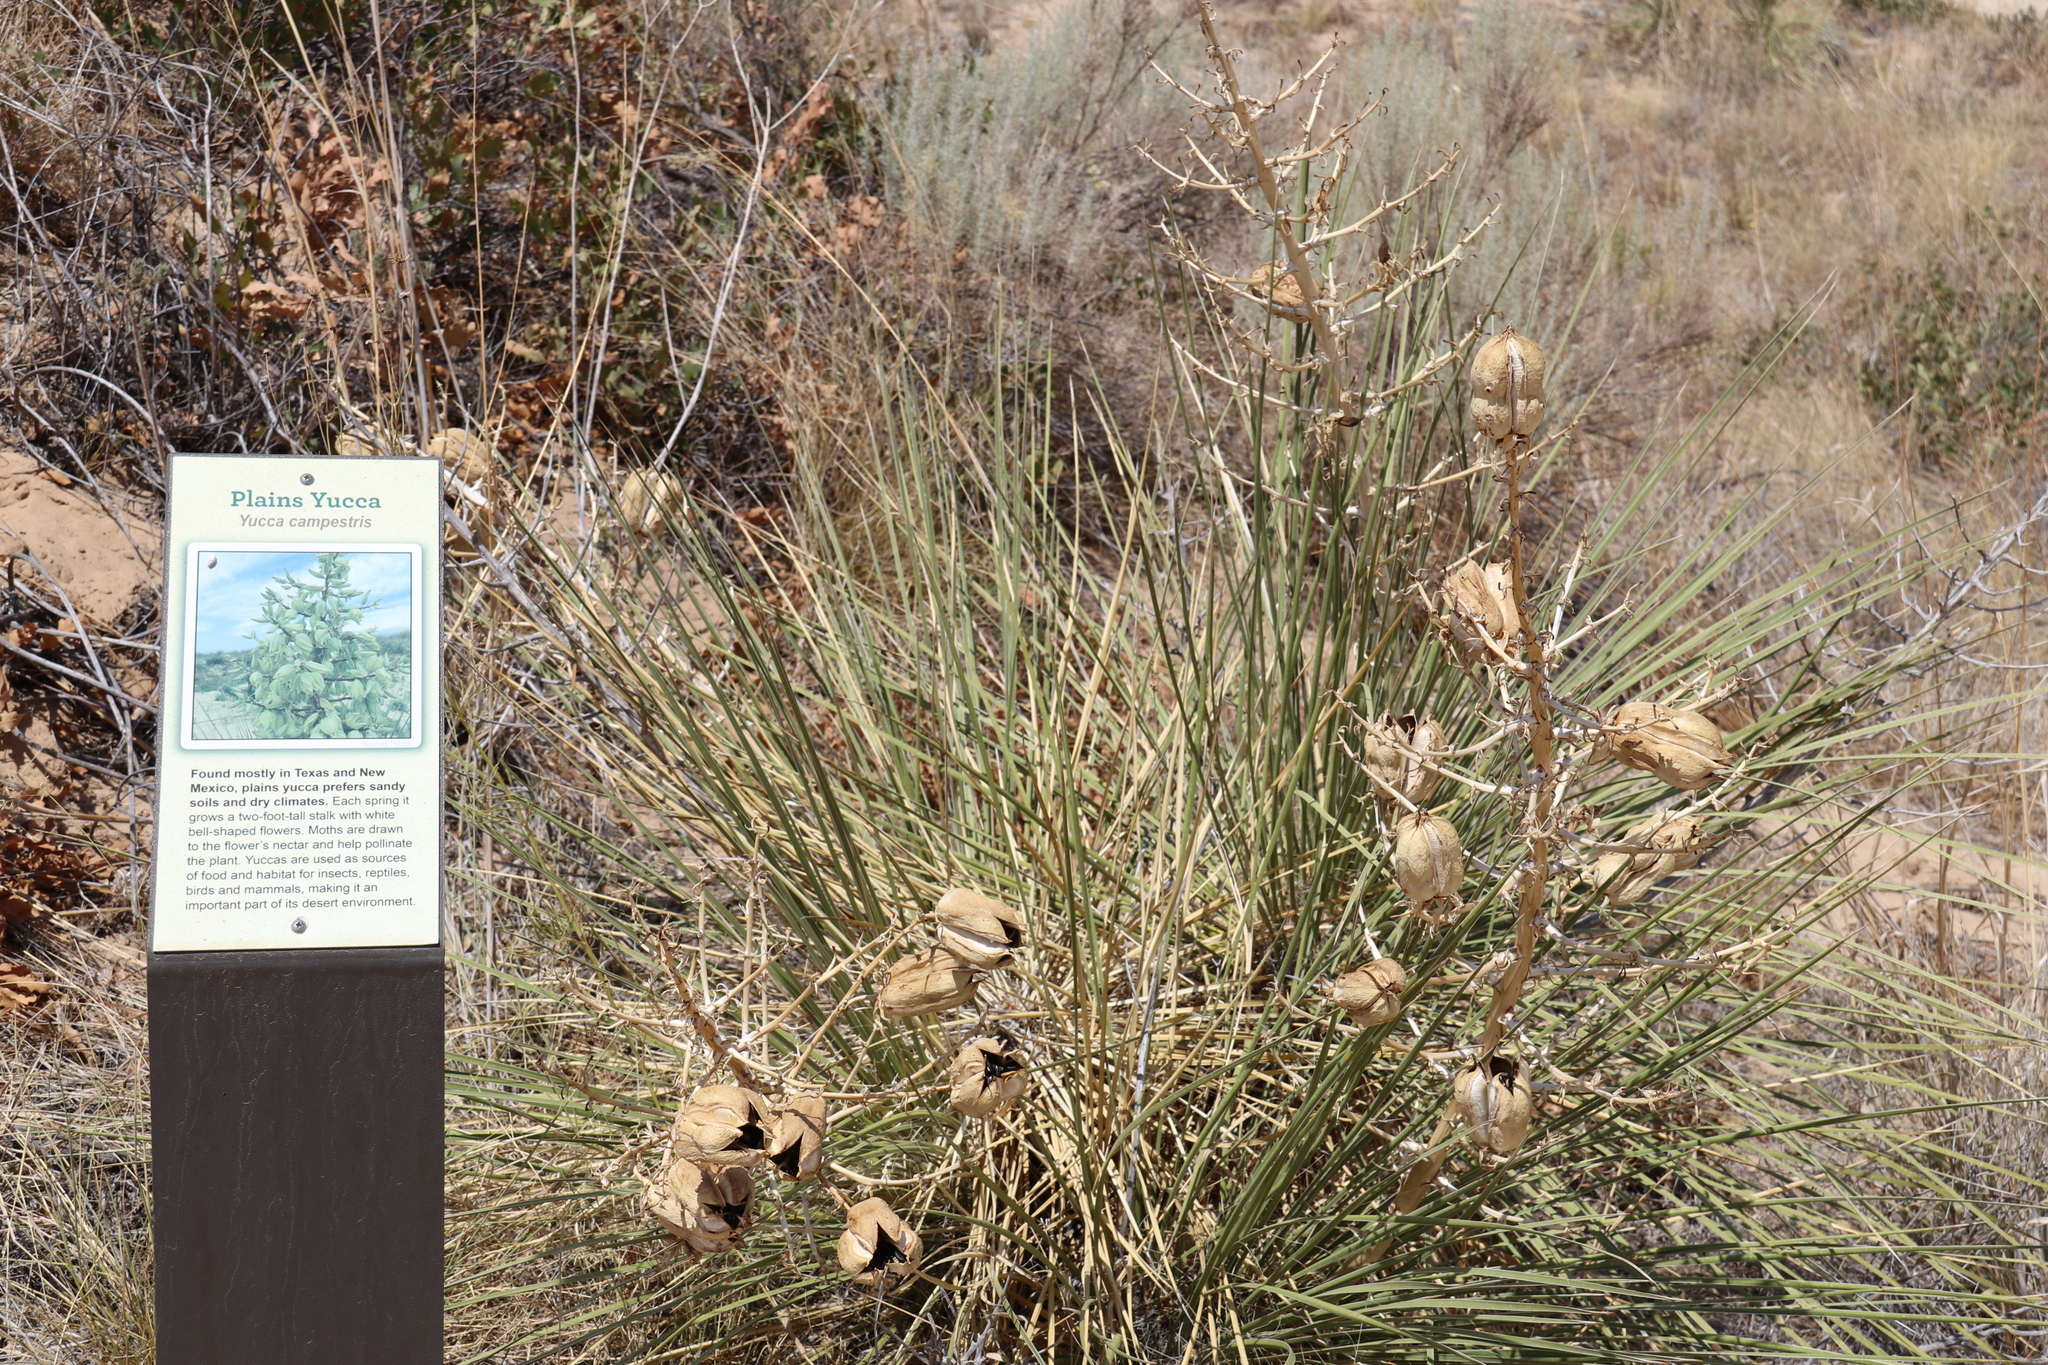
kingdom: Plantae
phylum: Tracheophyta
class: Liliopsida
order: Asparagales
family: Asparagaceae
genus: Yucca
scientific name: Yucca campestris
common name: Plains yucca
